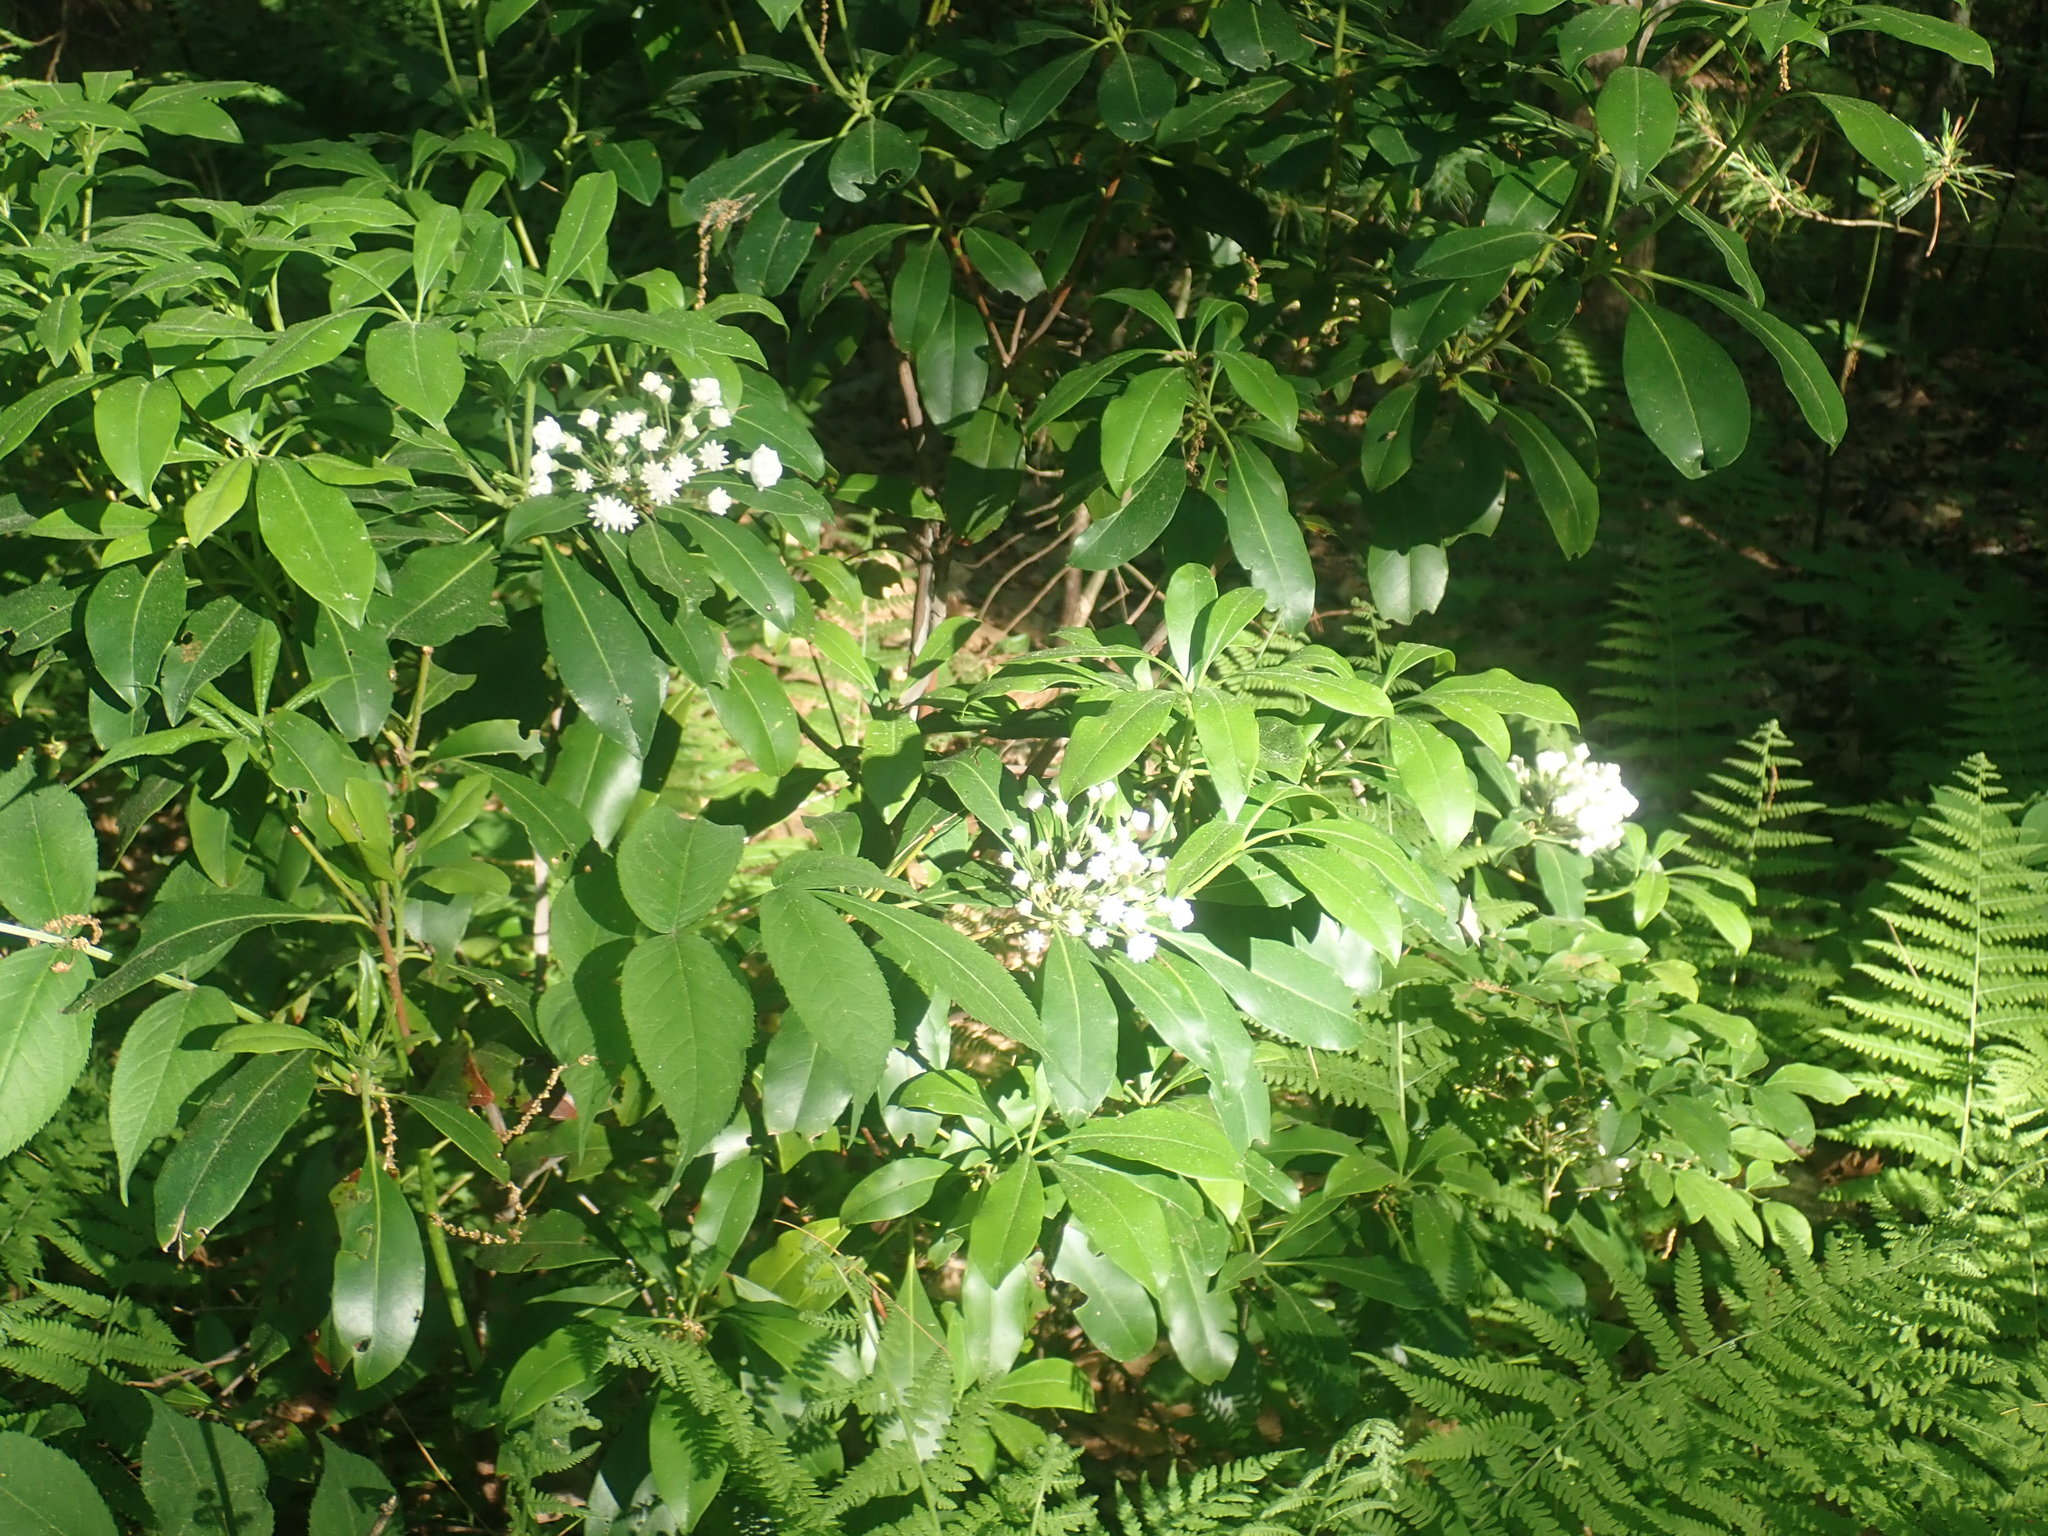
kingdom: Plantae
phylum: Tracheophyta
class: Magnoliopsida
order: Ericales
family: Ericaceae
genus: Kalmia
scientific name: Kalmia latifolia
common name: Mountain-laurel
